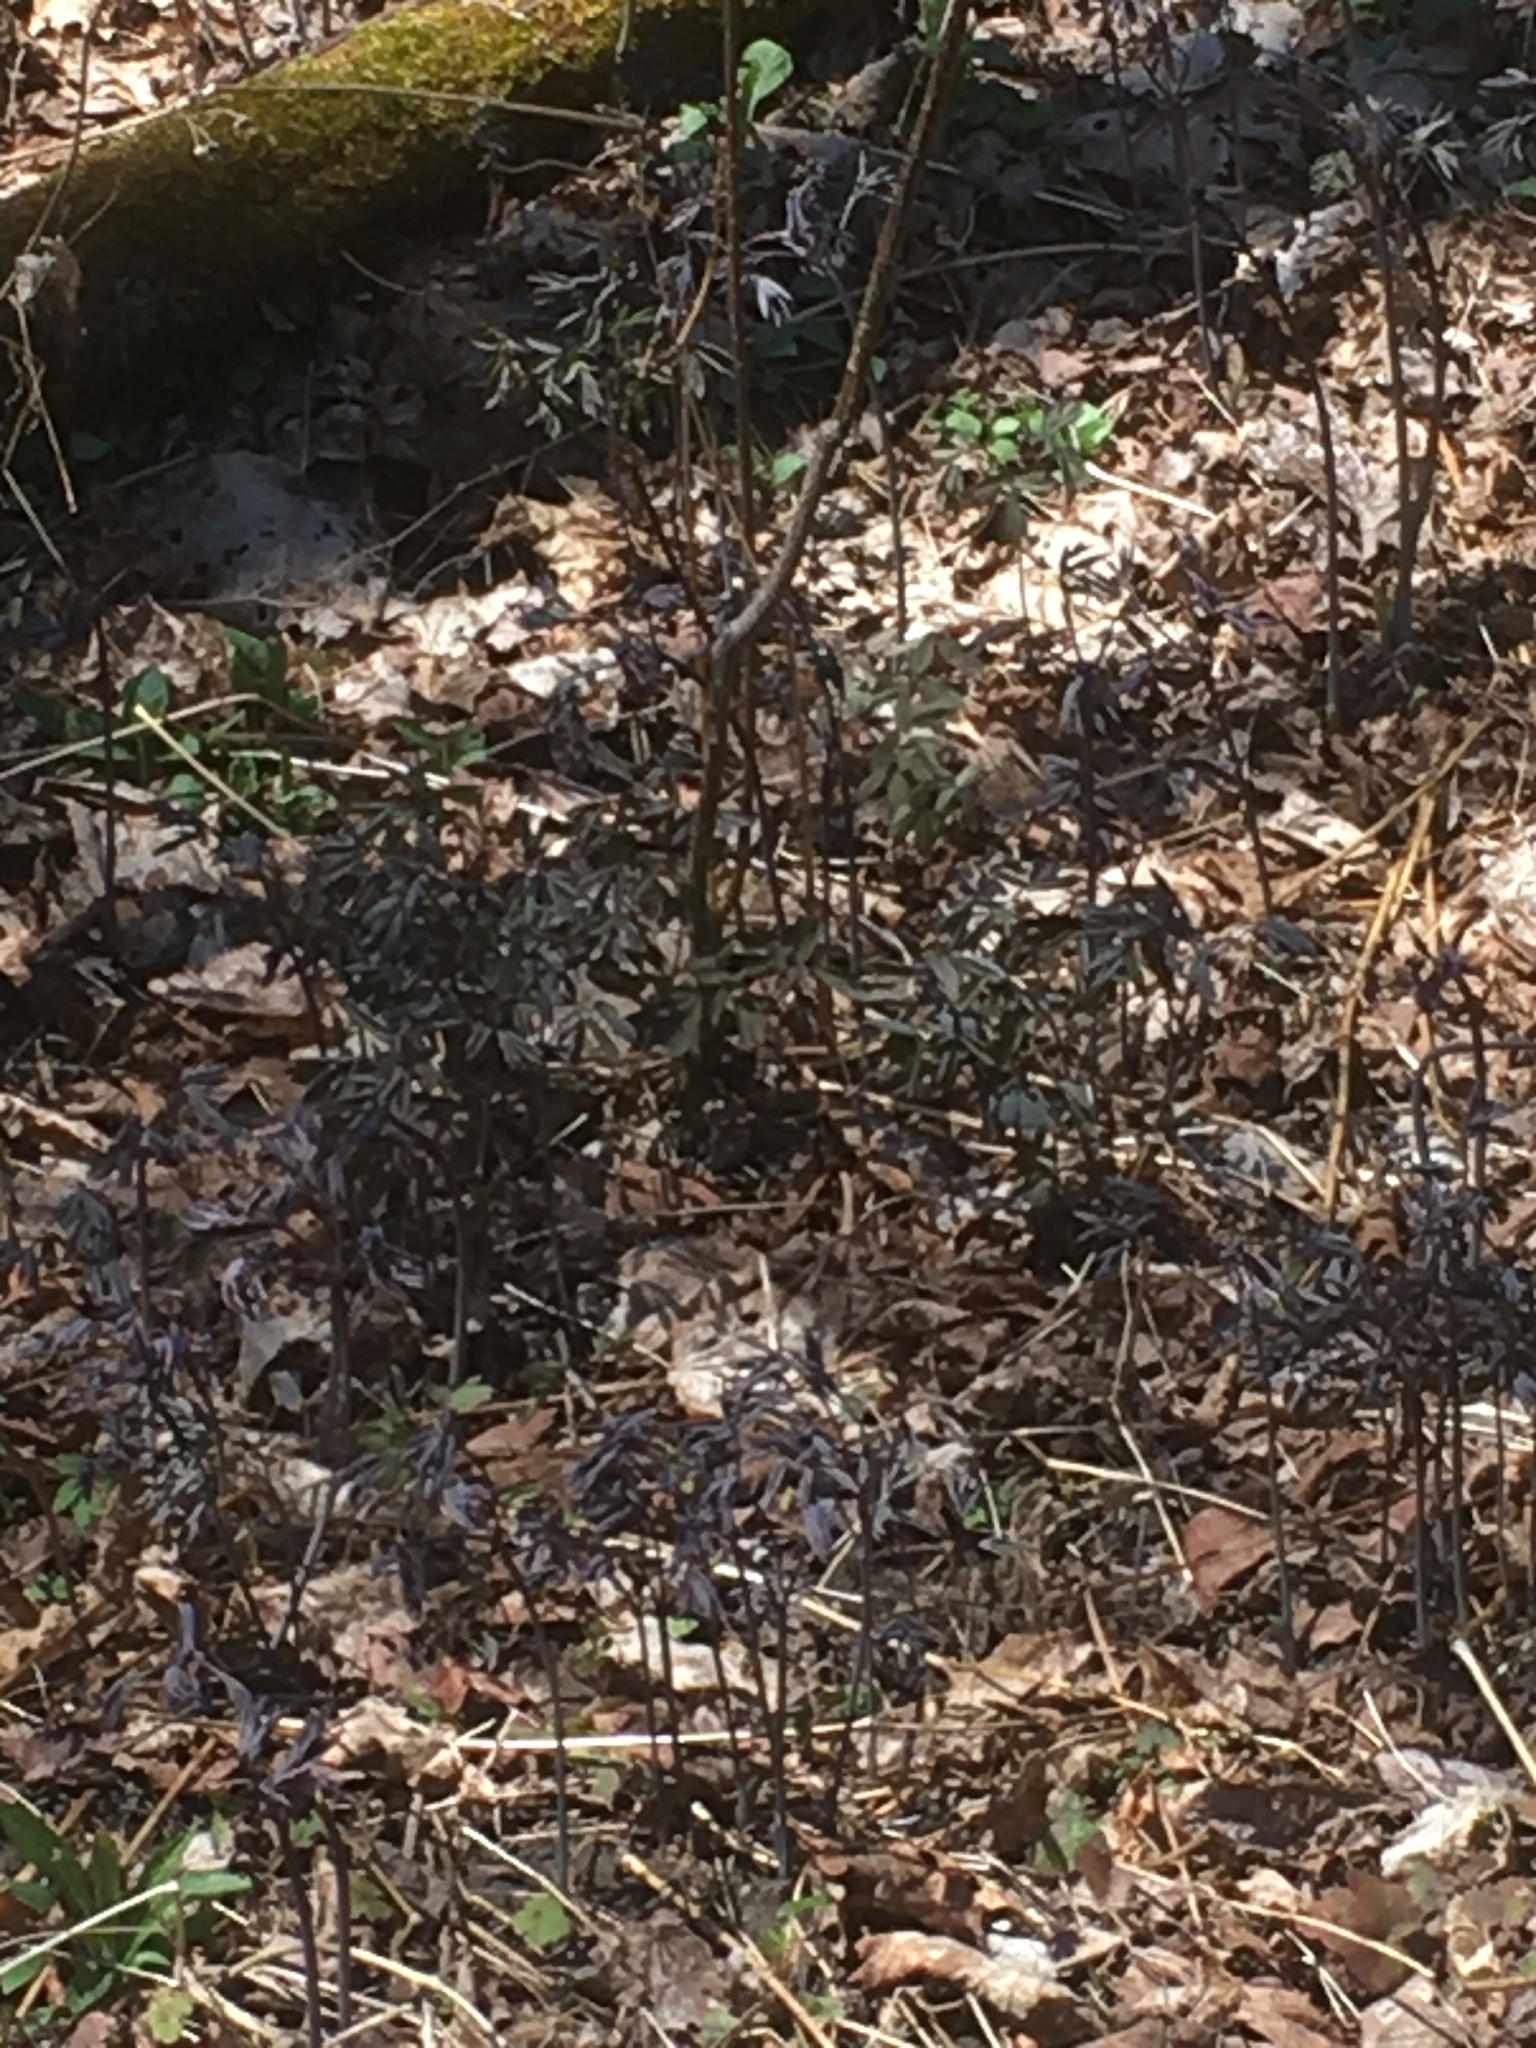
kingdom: Plantae
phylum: Tracheophyta
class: Magnoliopsida
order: Ranunculales
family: Berberidaceae
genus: Caulophyllum
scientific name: Caulophyllum giganteum
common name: Blue cohosh
